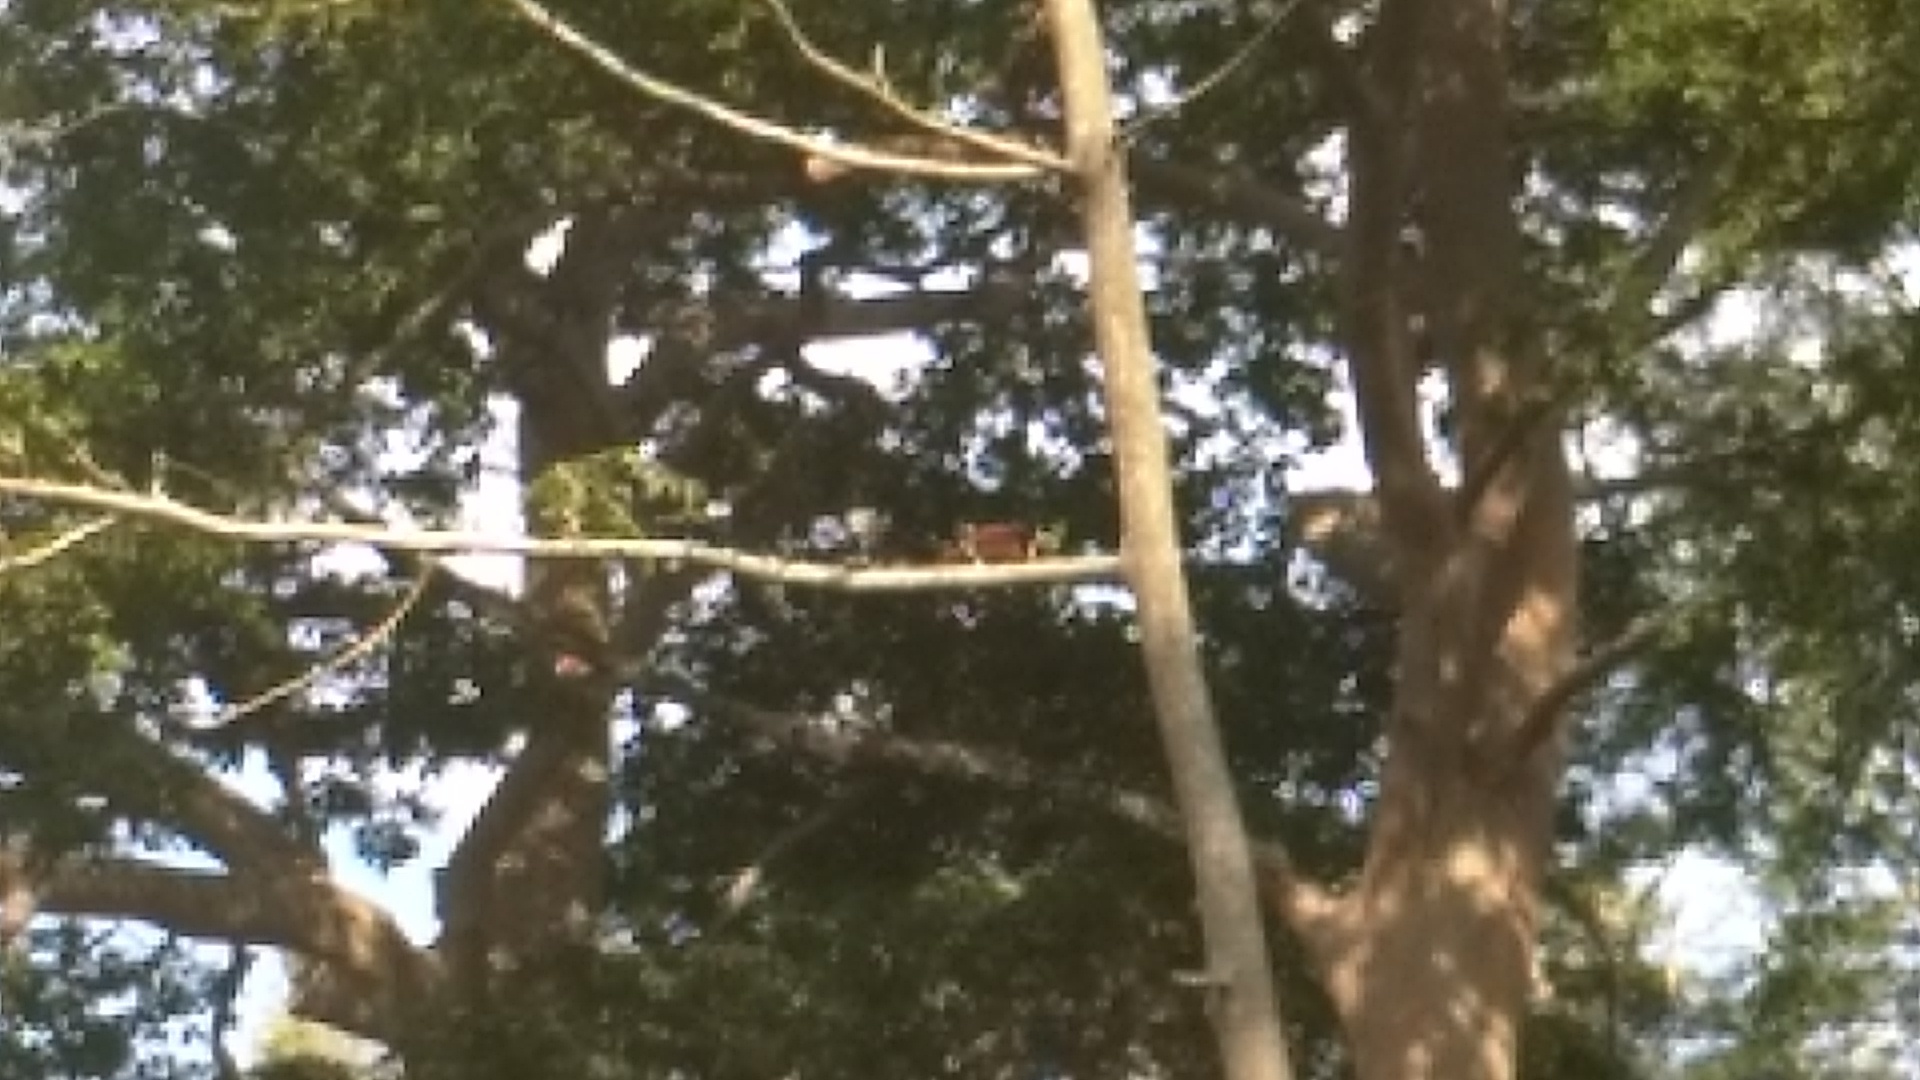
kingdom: Animalia
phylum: Chordata
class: Mammalia
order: Rodentia
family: Sciuridae
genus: Ratufa
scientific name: Ratufa indica
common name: Indian giant squirrel
